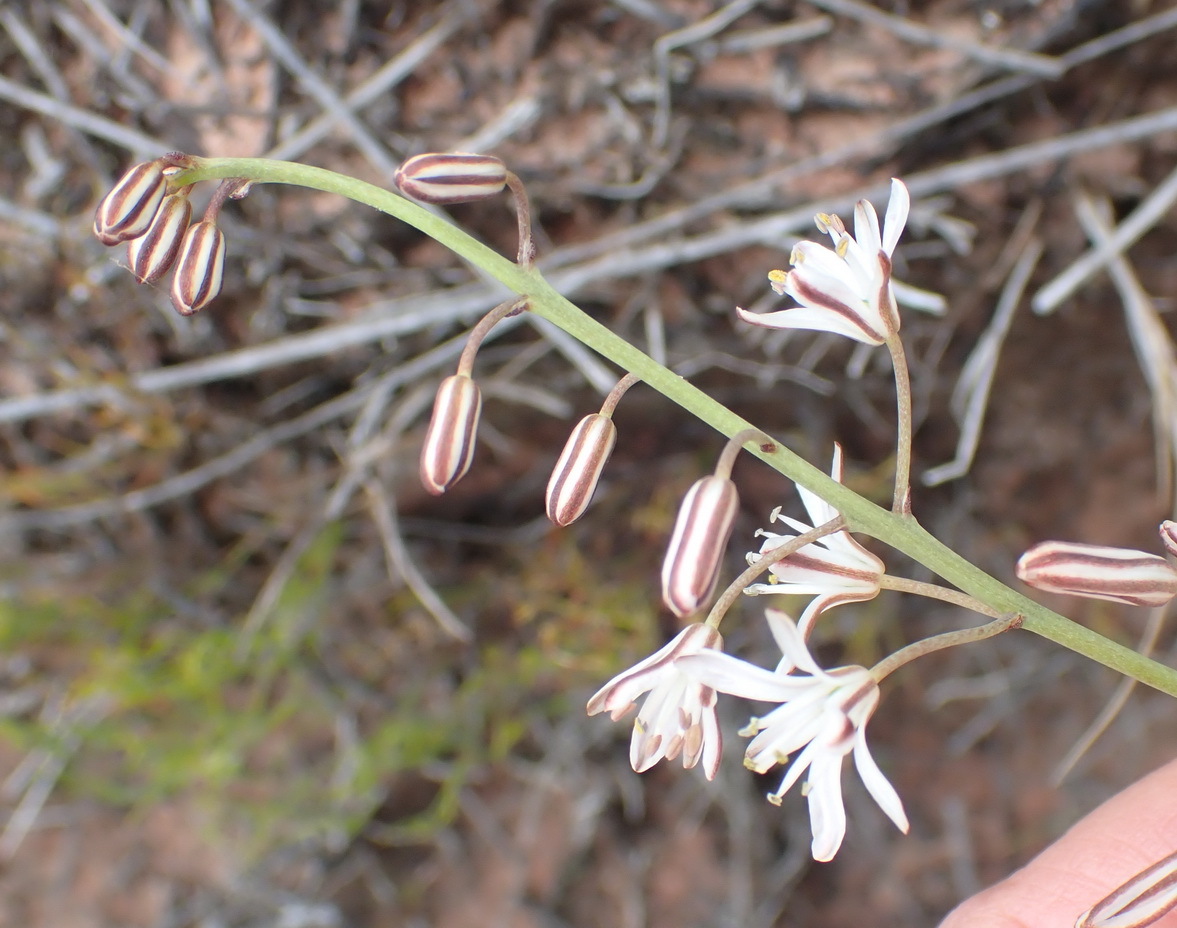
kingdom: Plantae
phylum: Tracheophyta
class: Liliopsida
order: Asparagales
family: Asparagaceae
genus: Eriospermum
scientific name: Eriospermum dielsianum
